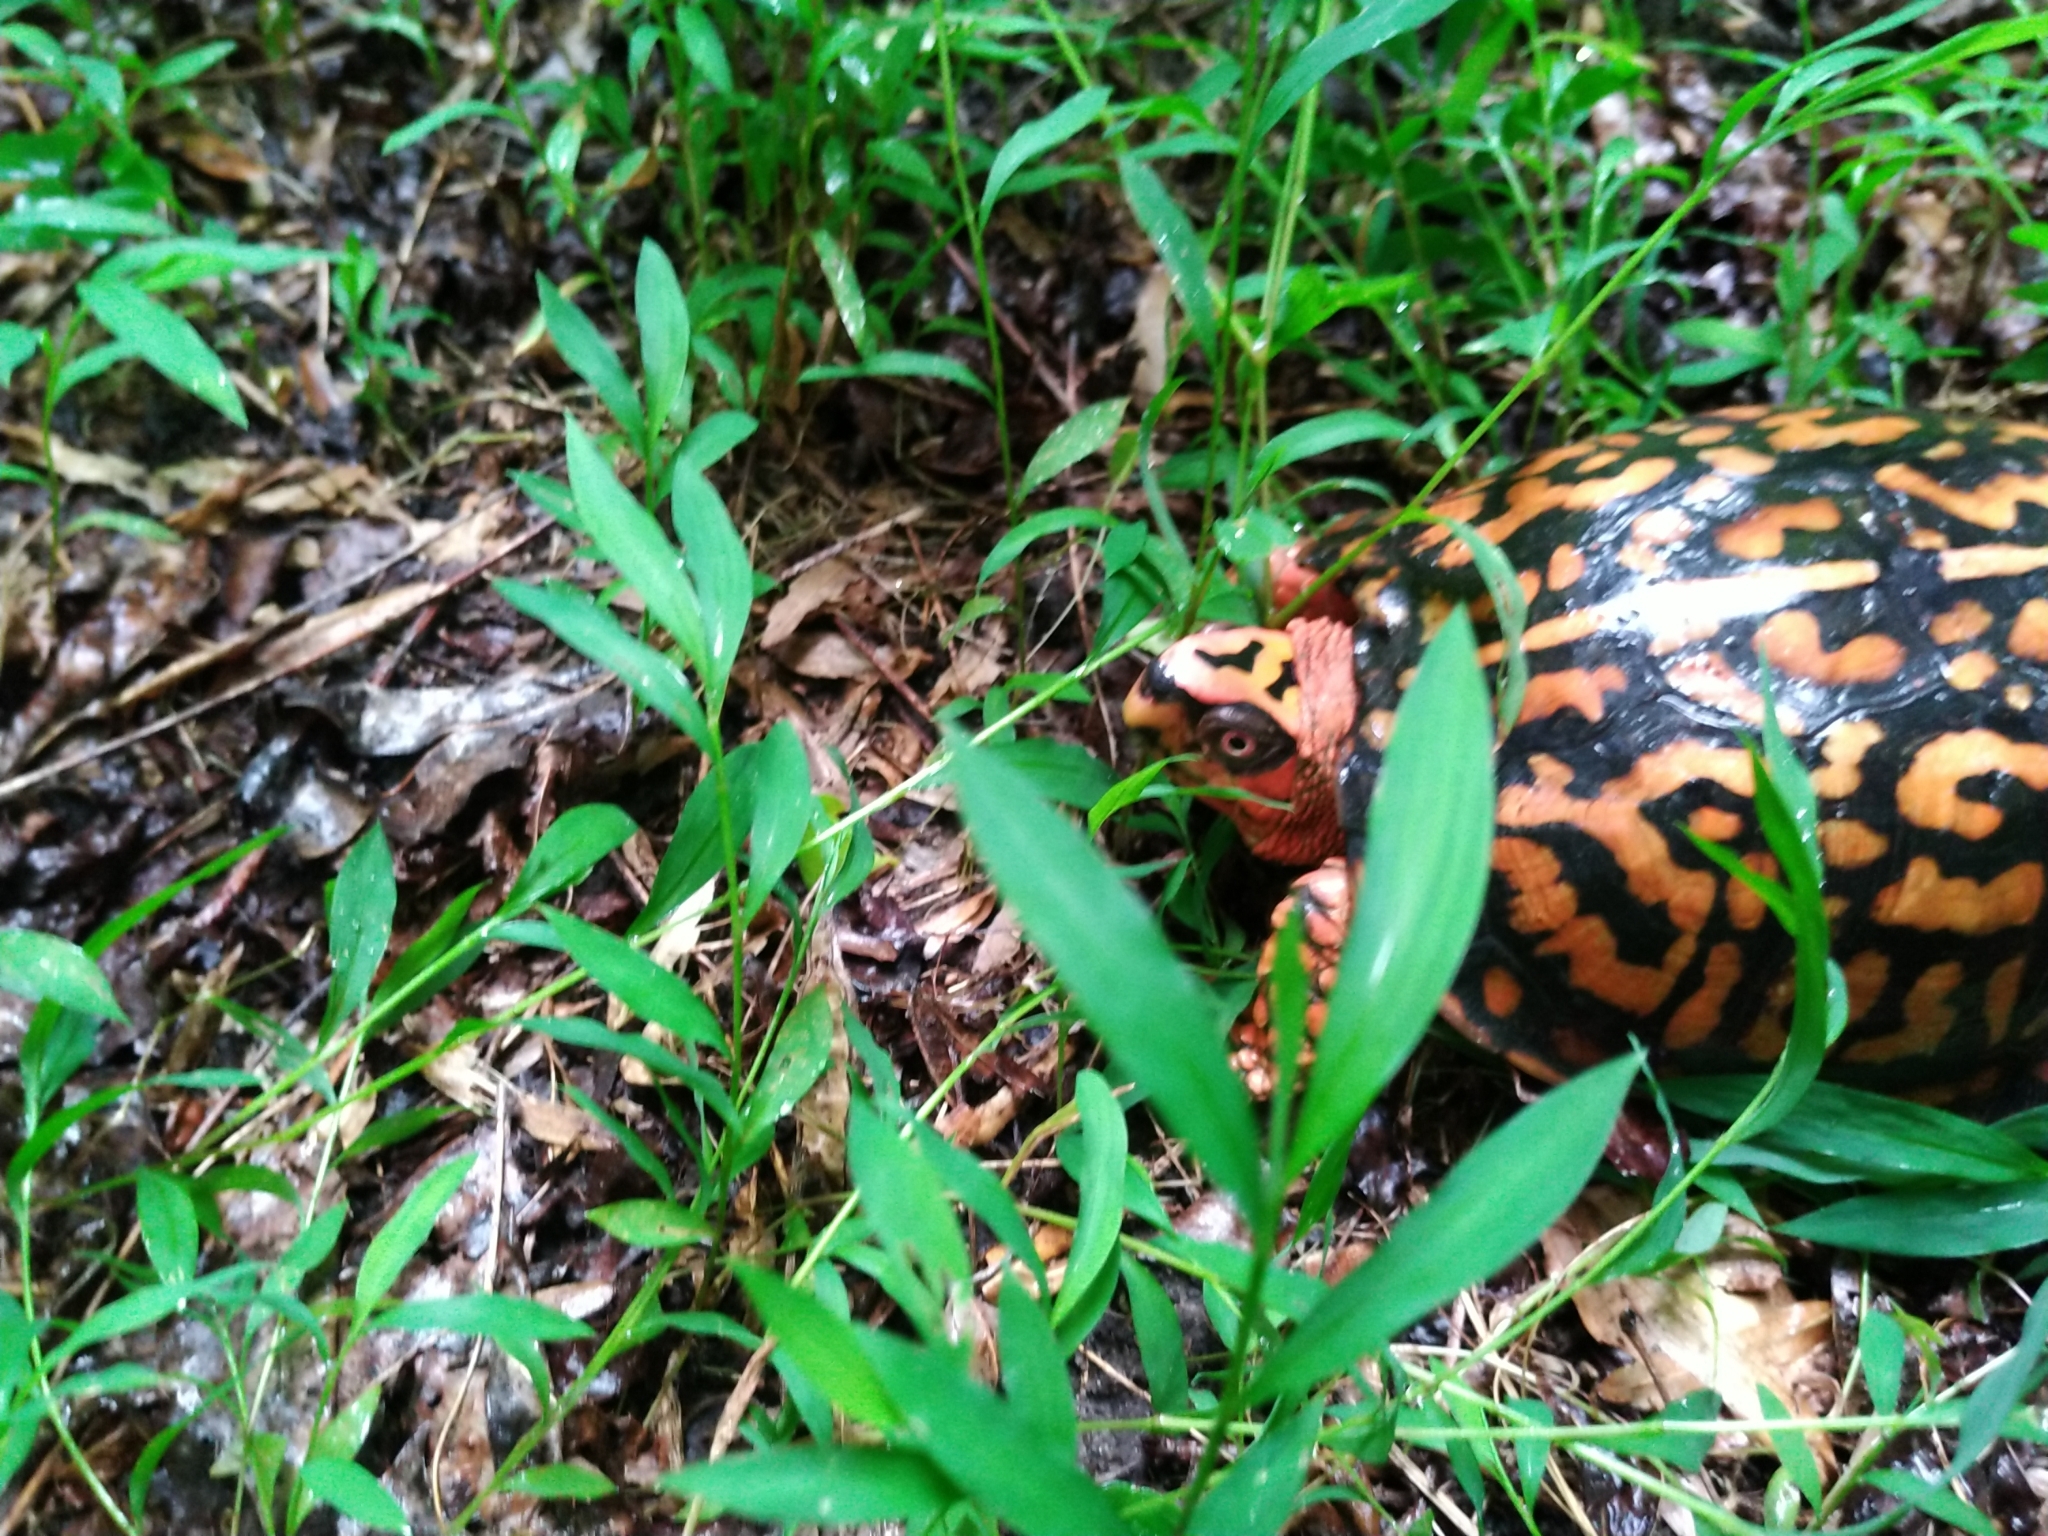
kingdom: Animalia
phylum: Chordata
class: Testudines
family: Emydidae
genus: Terrapene
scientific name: Terrapene carolina
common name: Common box turtle
